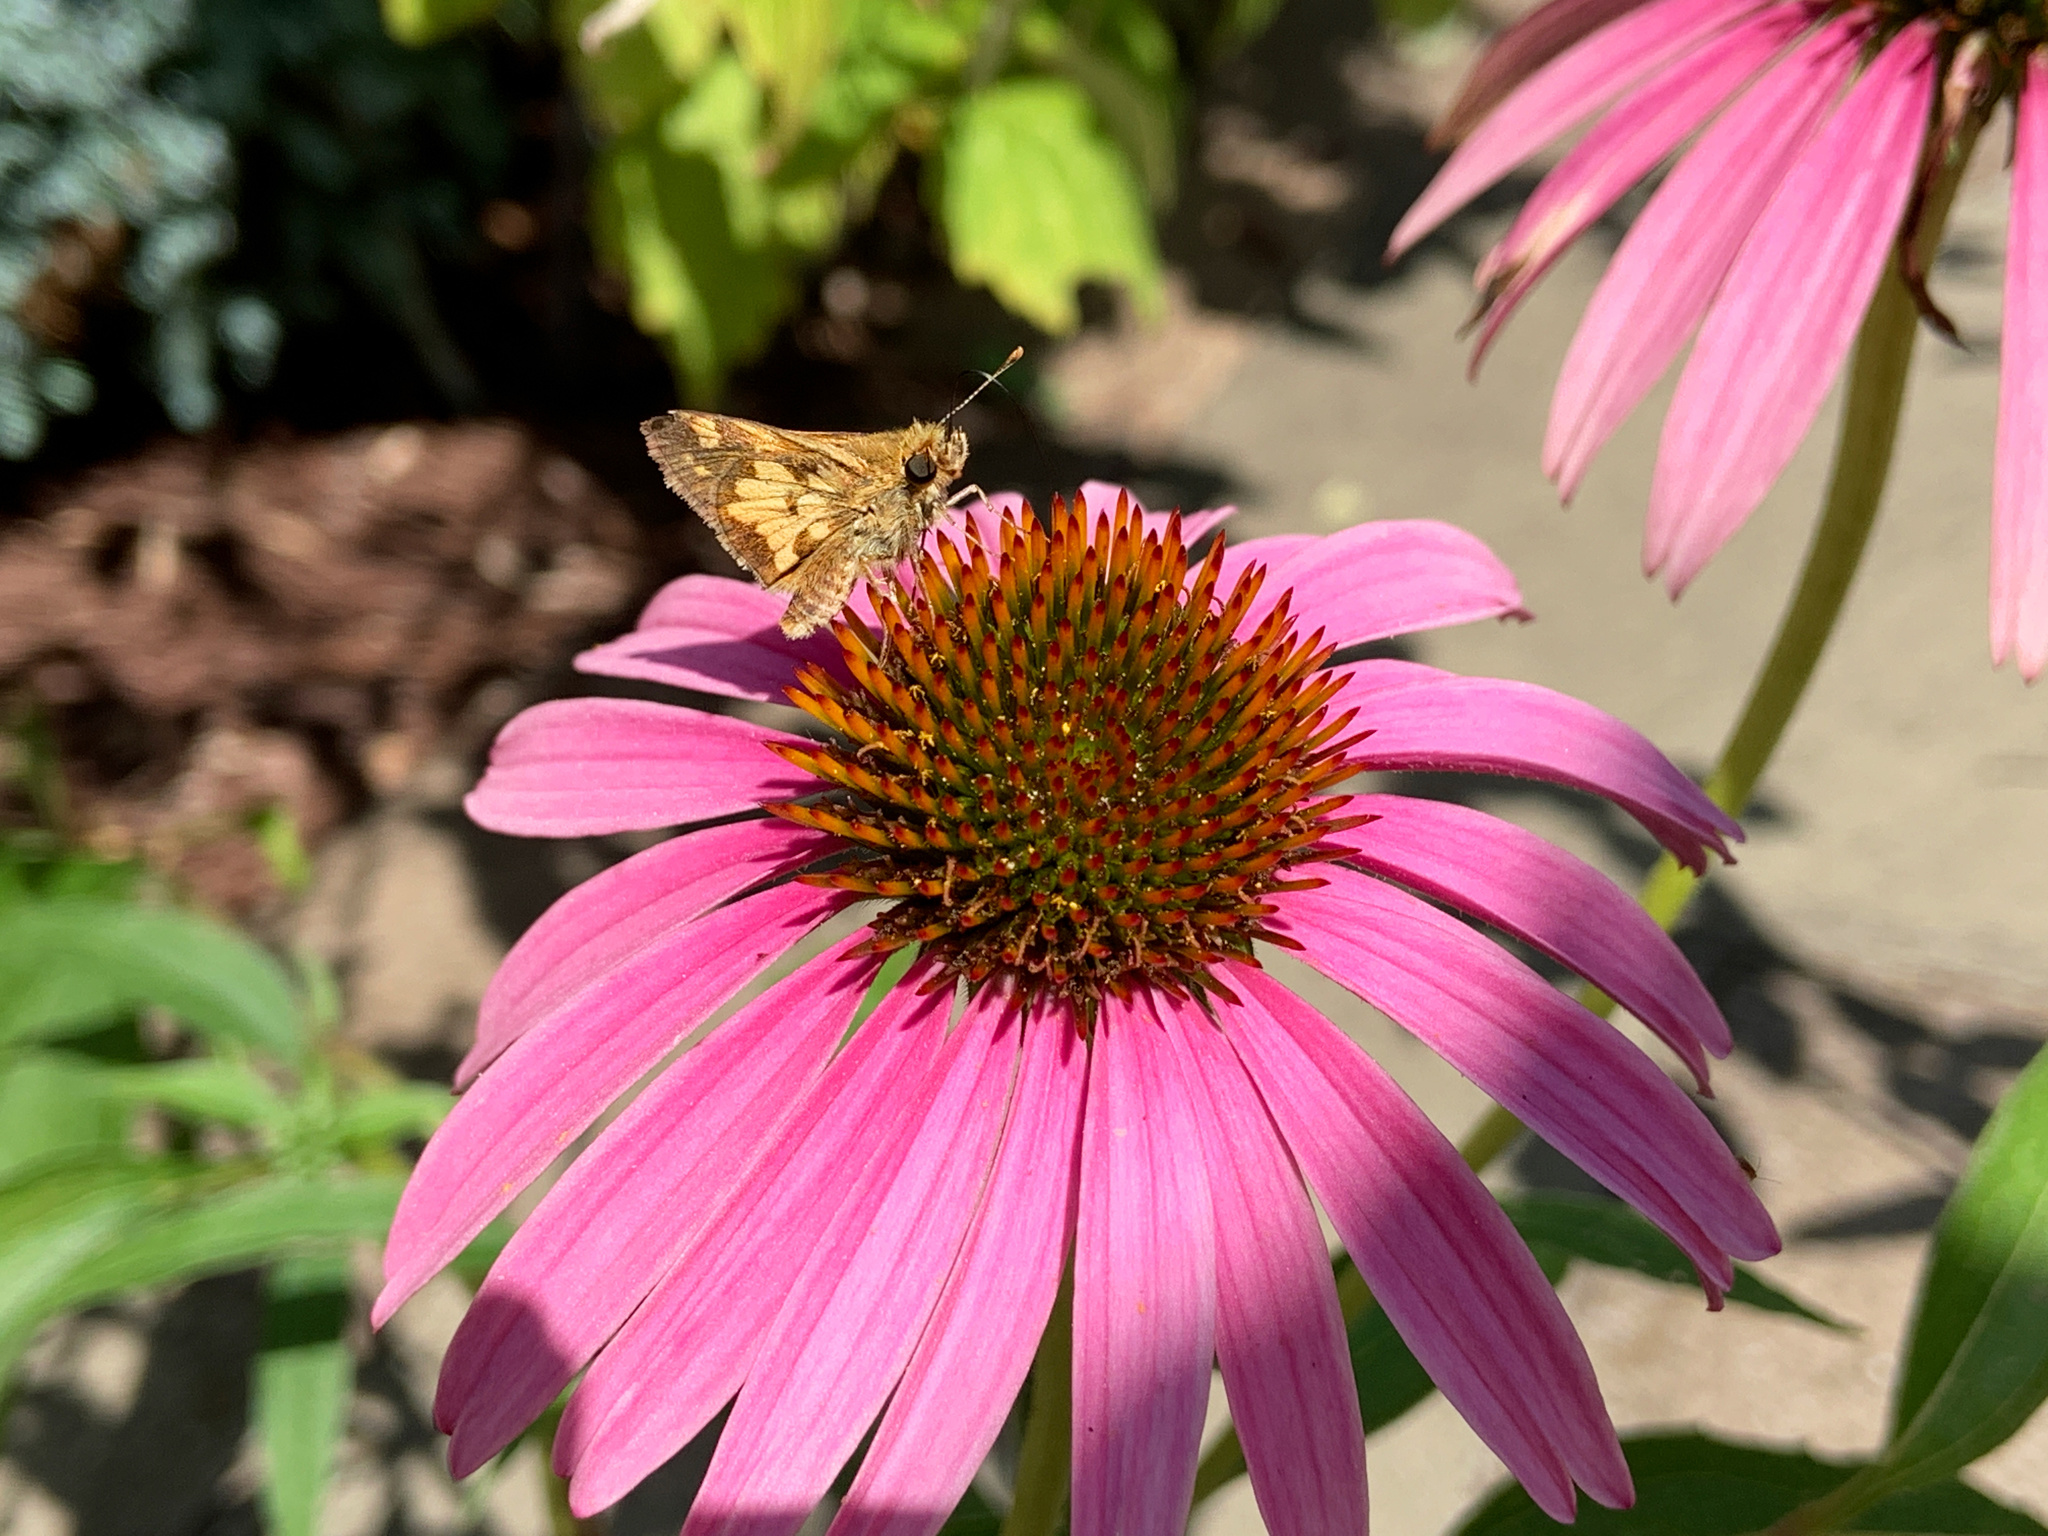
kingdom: Animalia
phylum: Arthropoda
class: Insecta
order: Lepidoptera
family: Hesperiidae
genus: Polites
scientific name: Polites coras
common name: Peck's skipper
